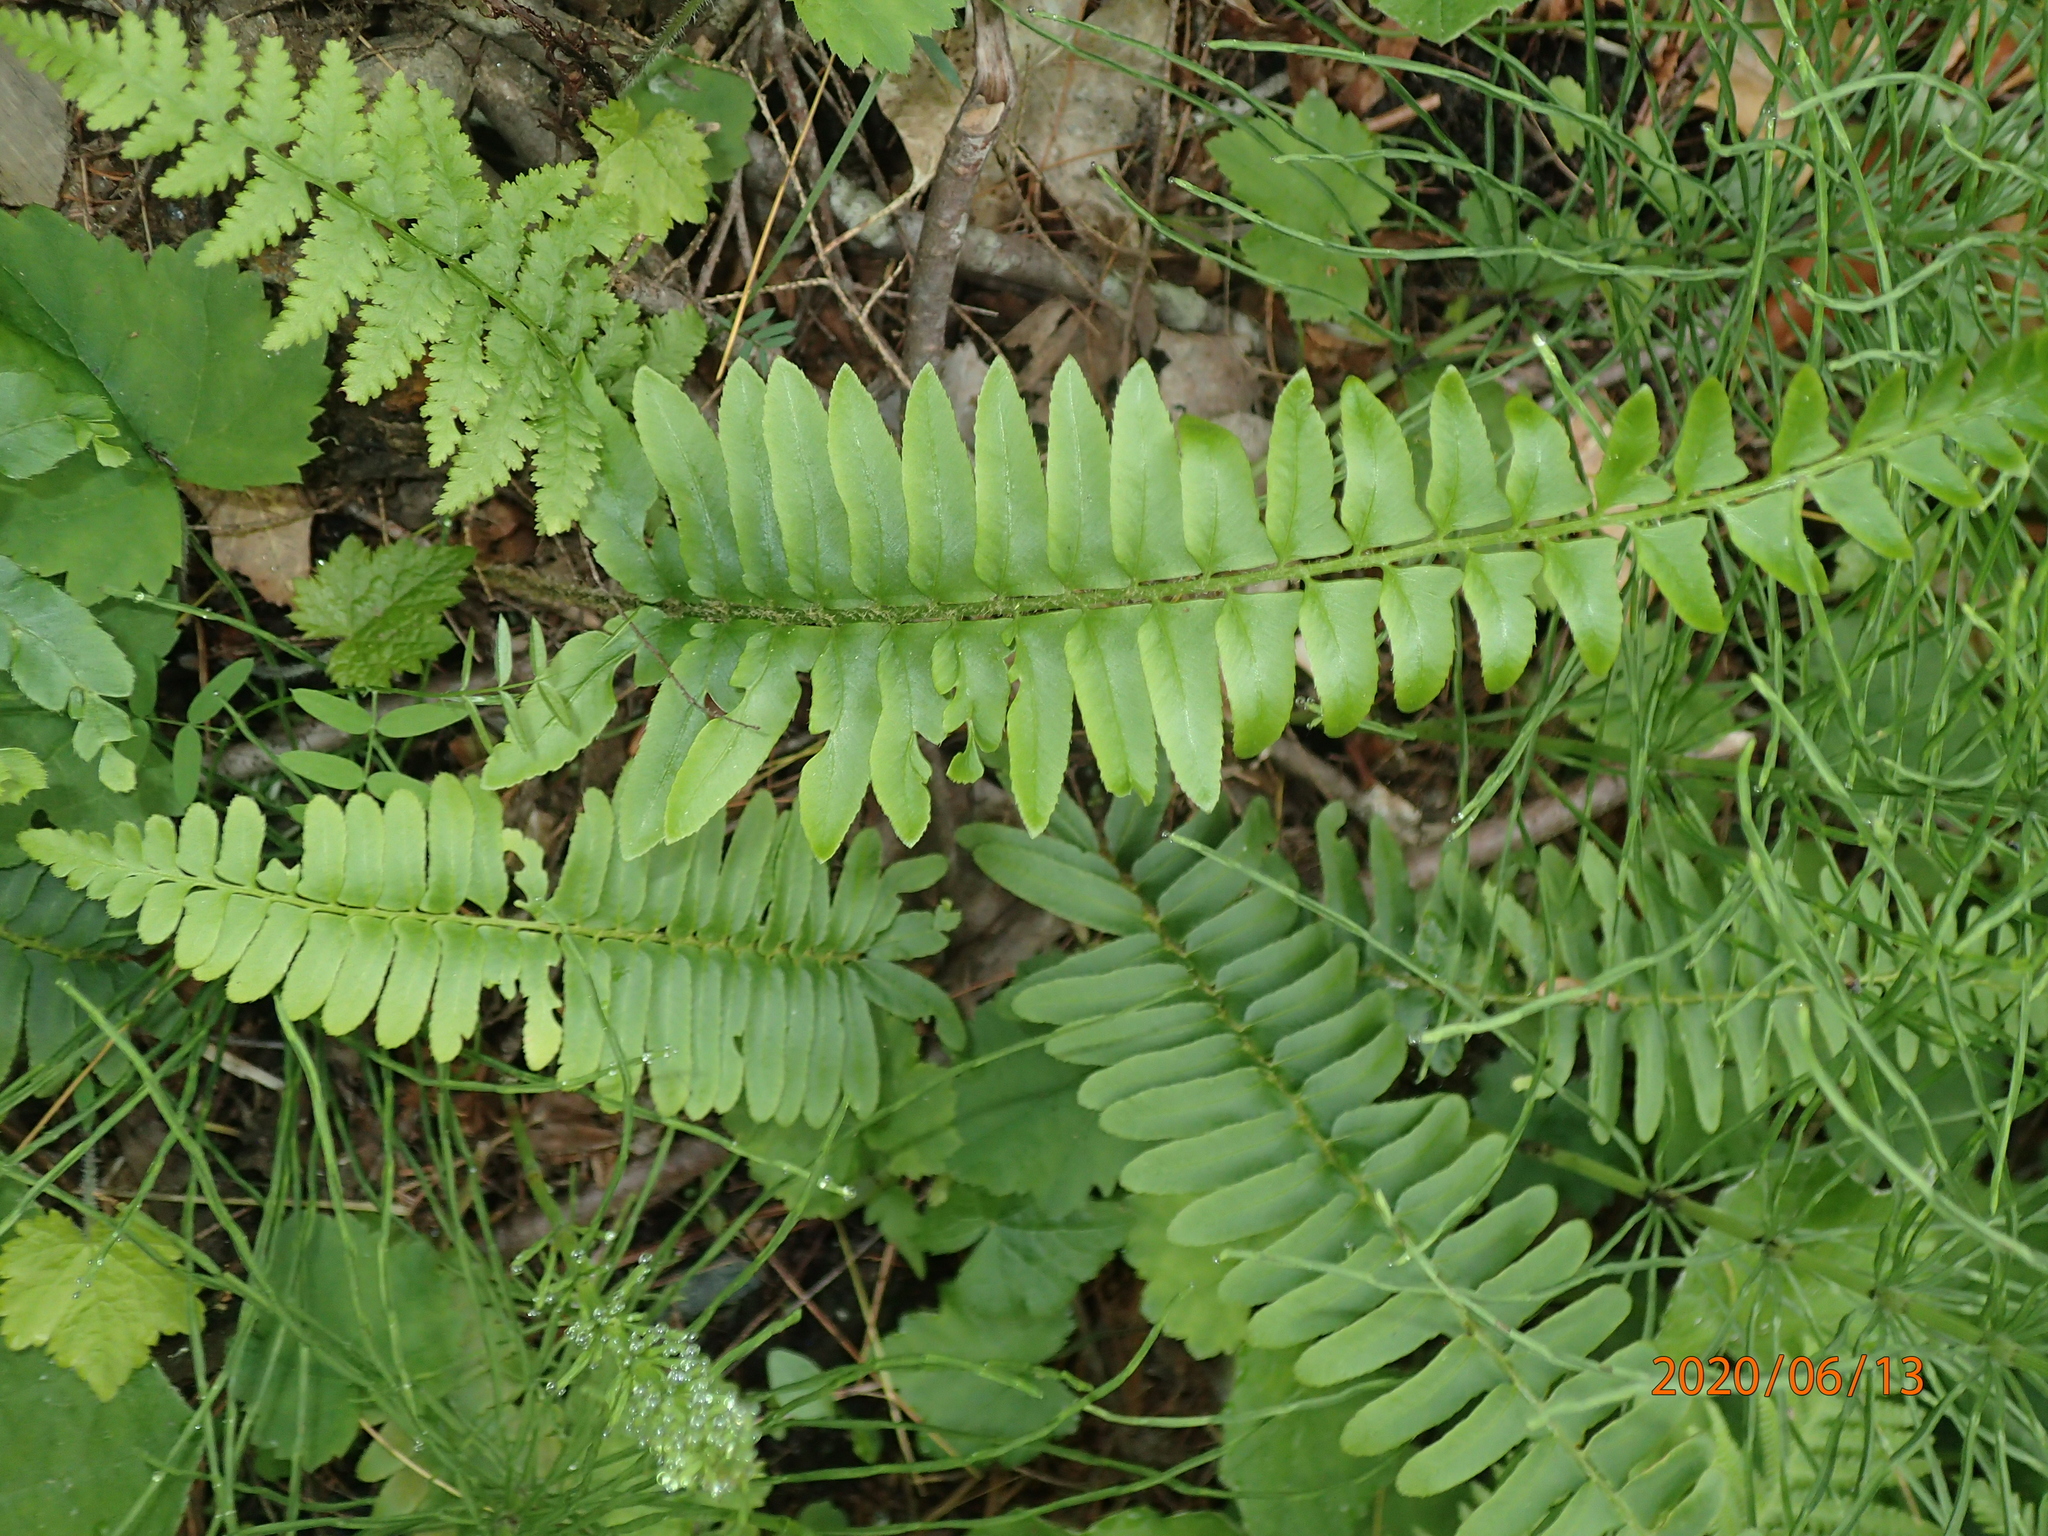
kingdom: Plantae
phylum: Tracheophyta
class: Polypodiopsida
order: Polypodiales
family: Dryopteridaceae
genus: Polystichum
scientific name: Polystichum acrostichoides
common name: Christmas fern
